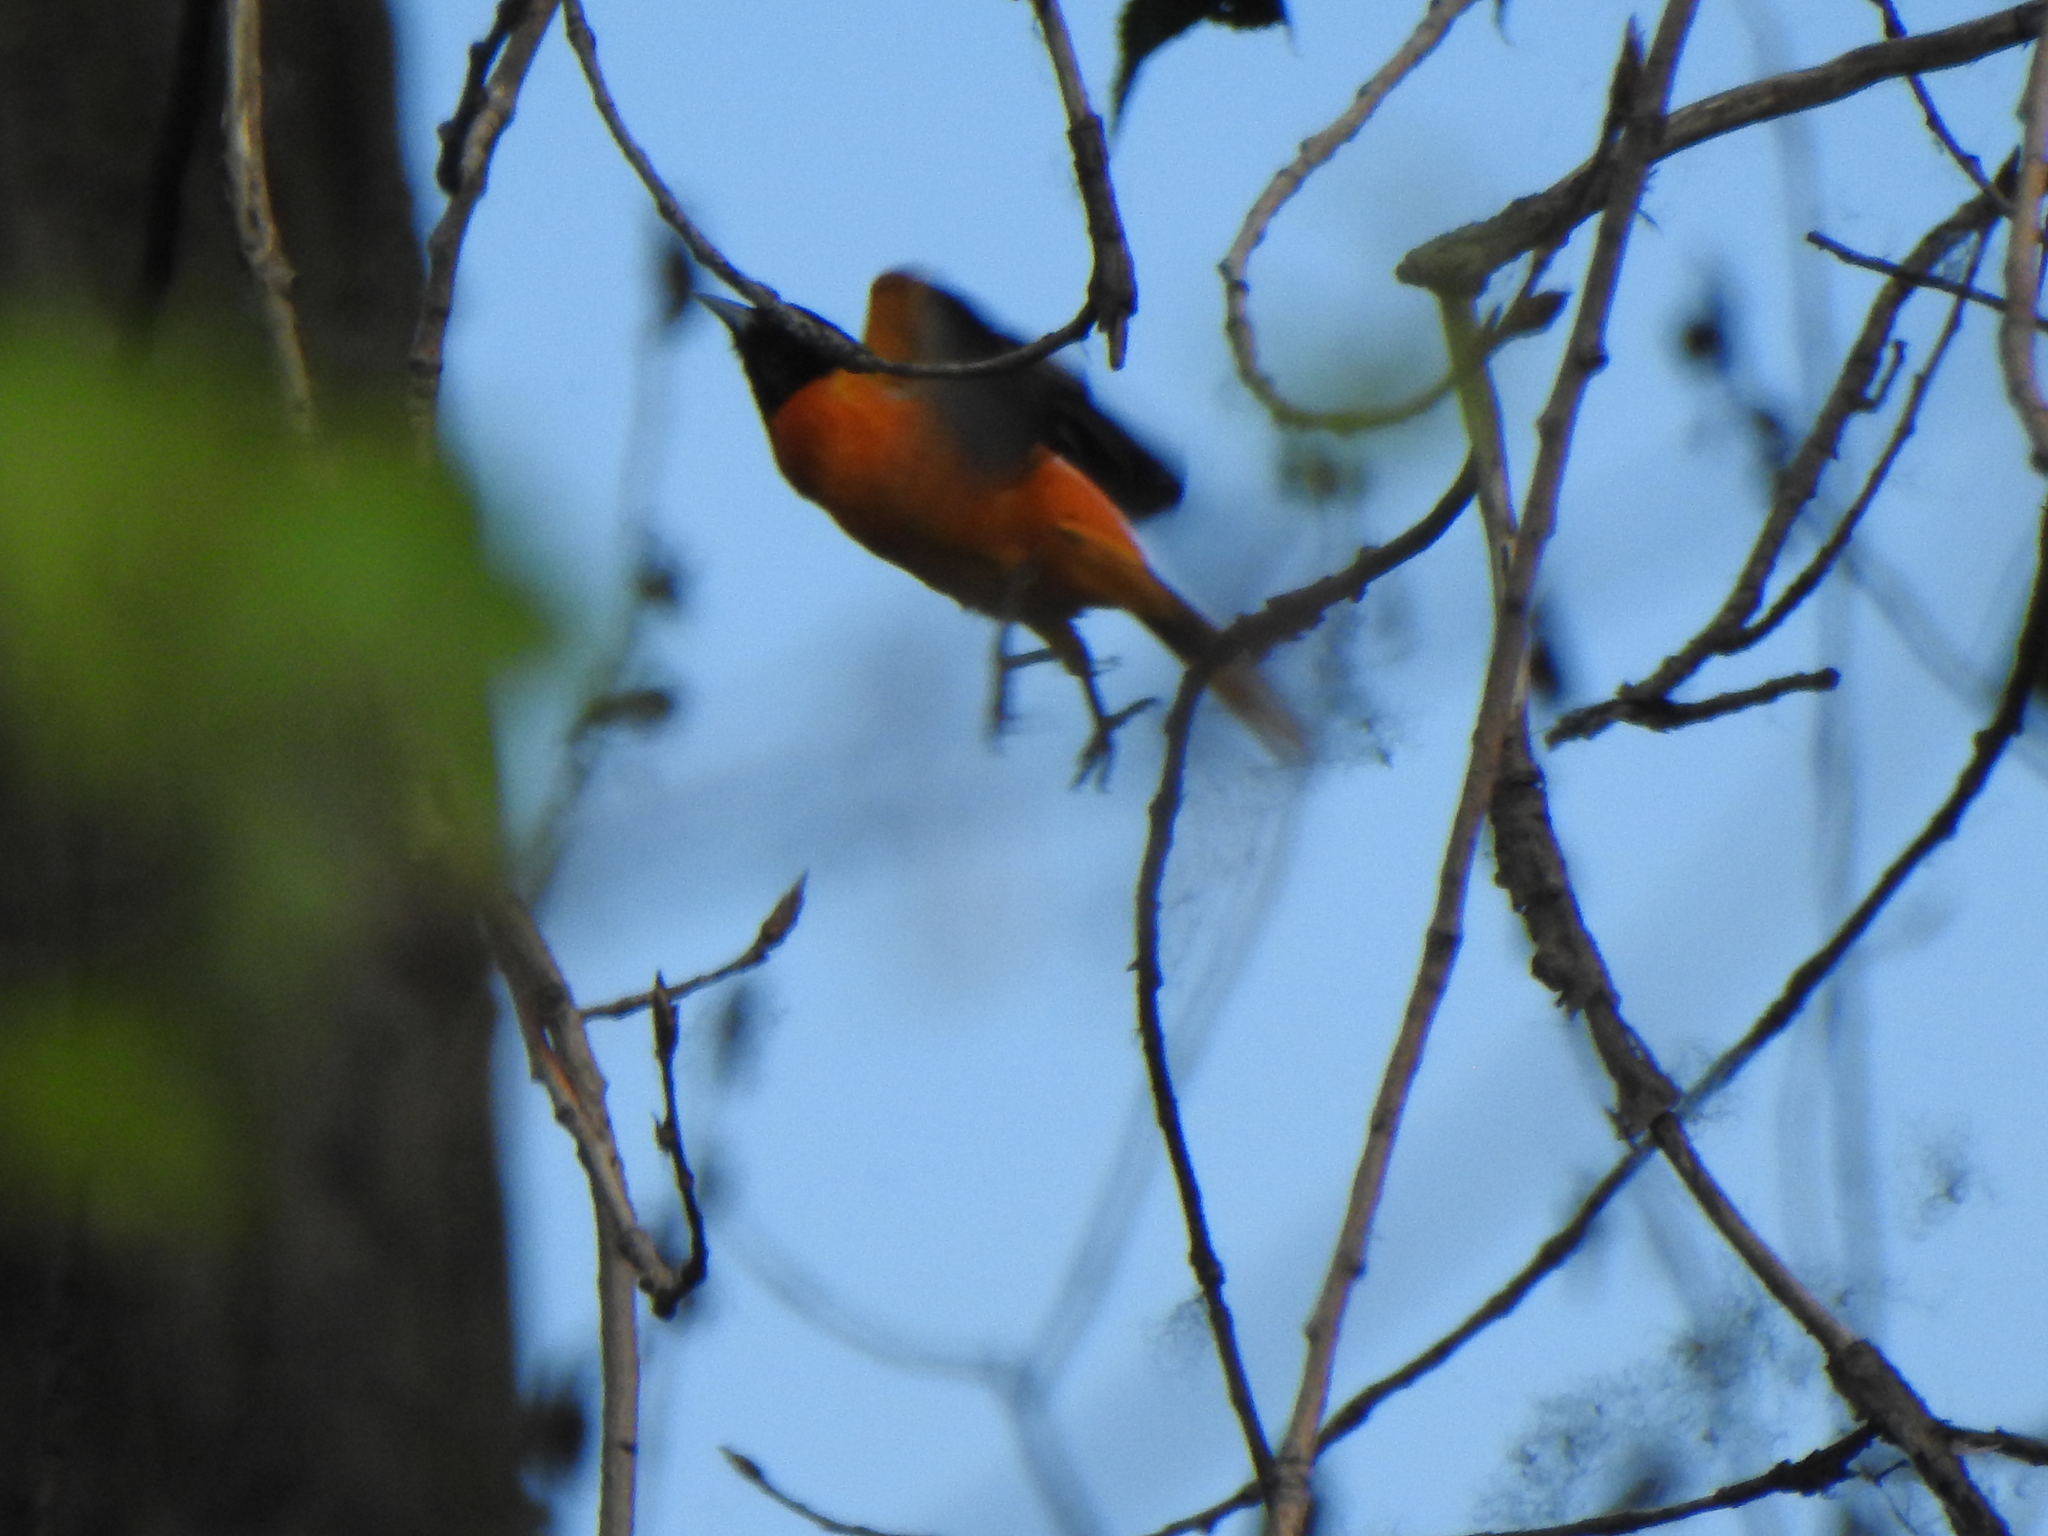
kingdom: Animalia
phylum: Chordata
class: Aves
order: Passeriformes
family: Icteridae
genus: Icterus
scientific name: Icterus galbula
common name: Baltimore oriole
